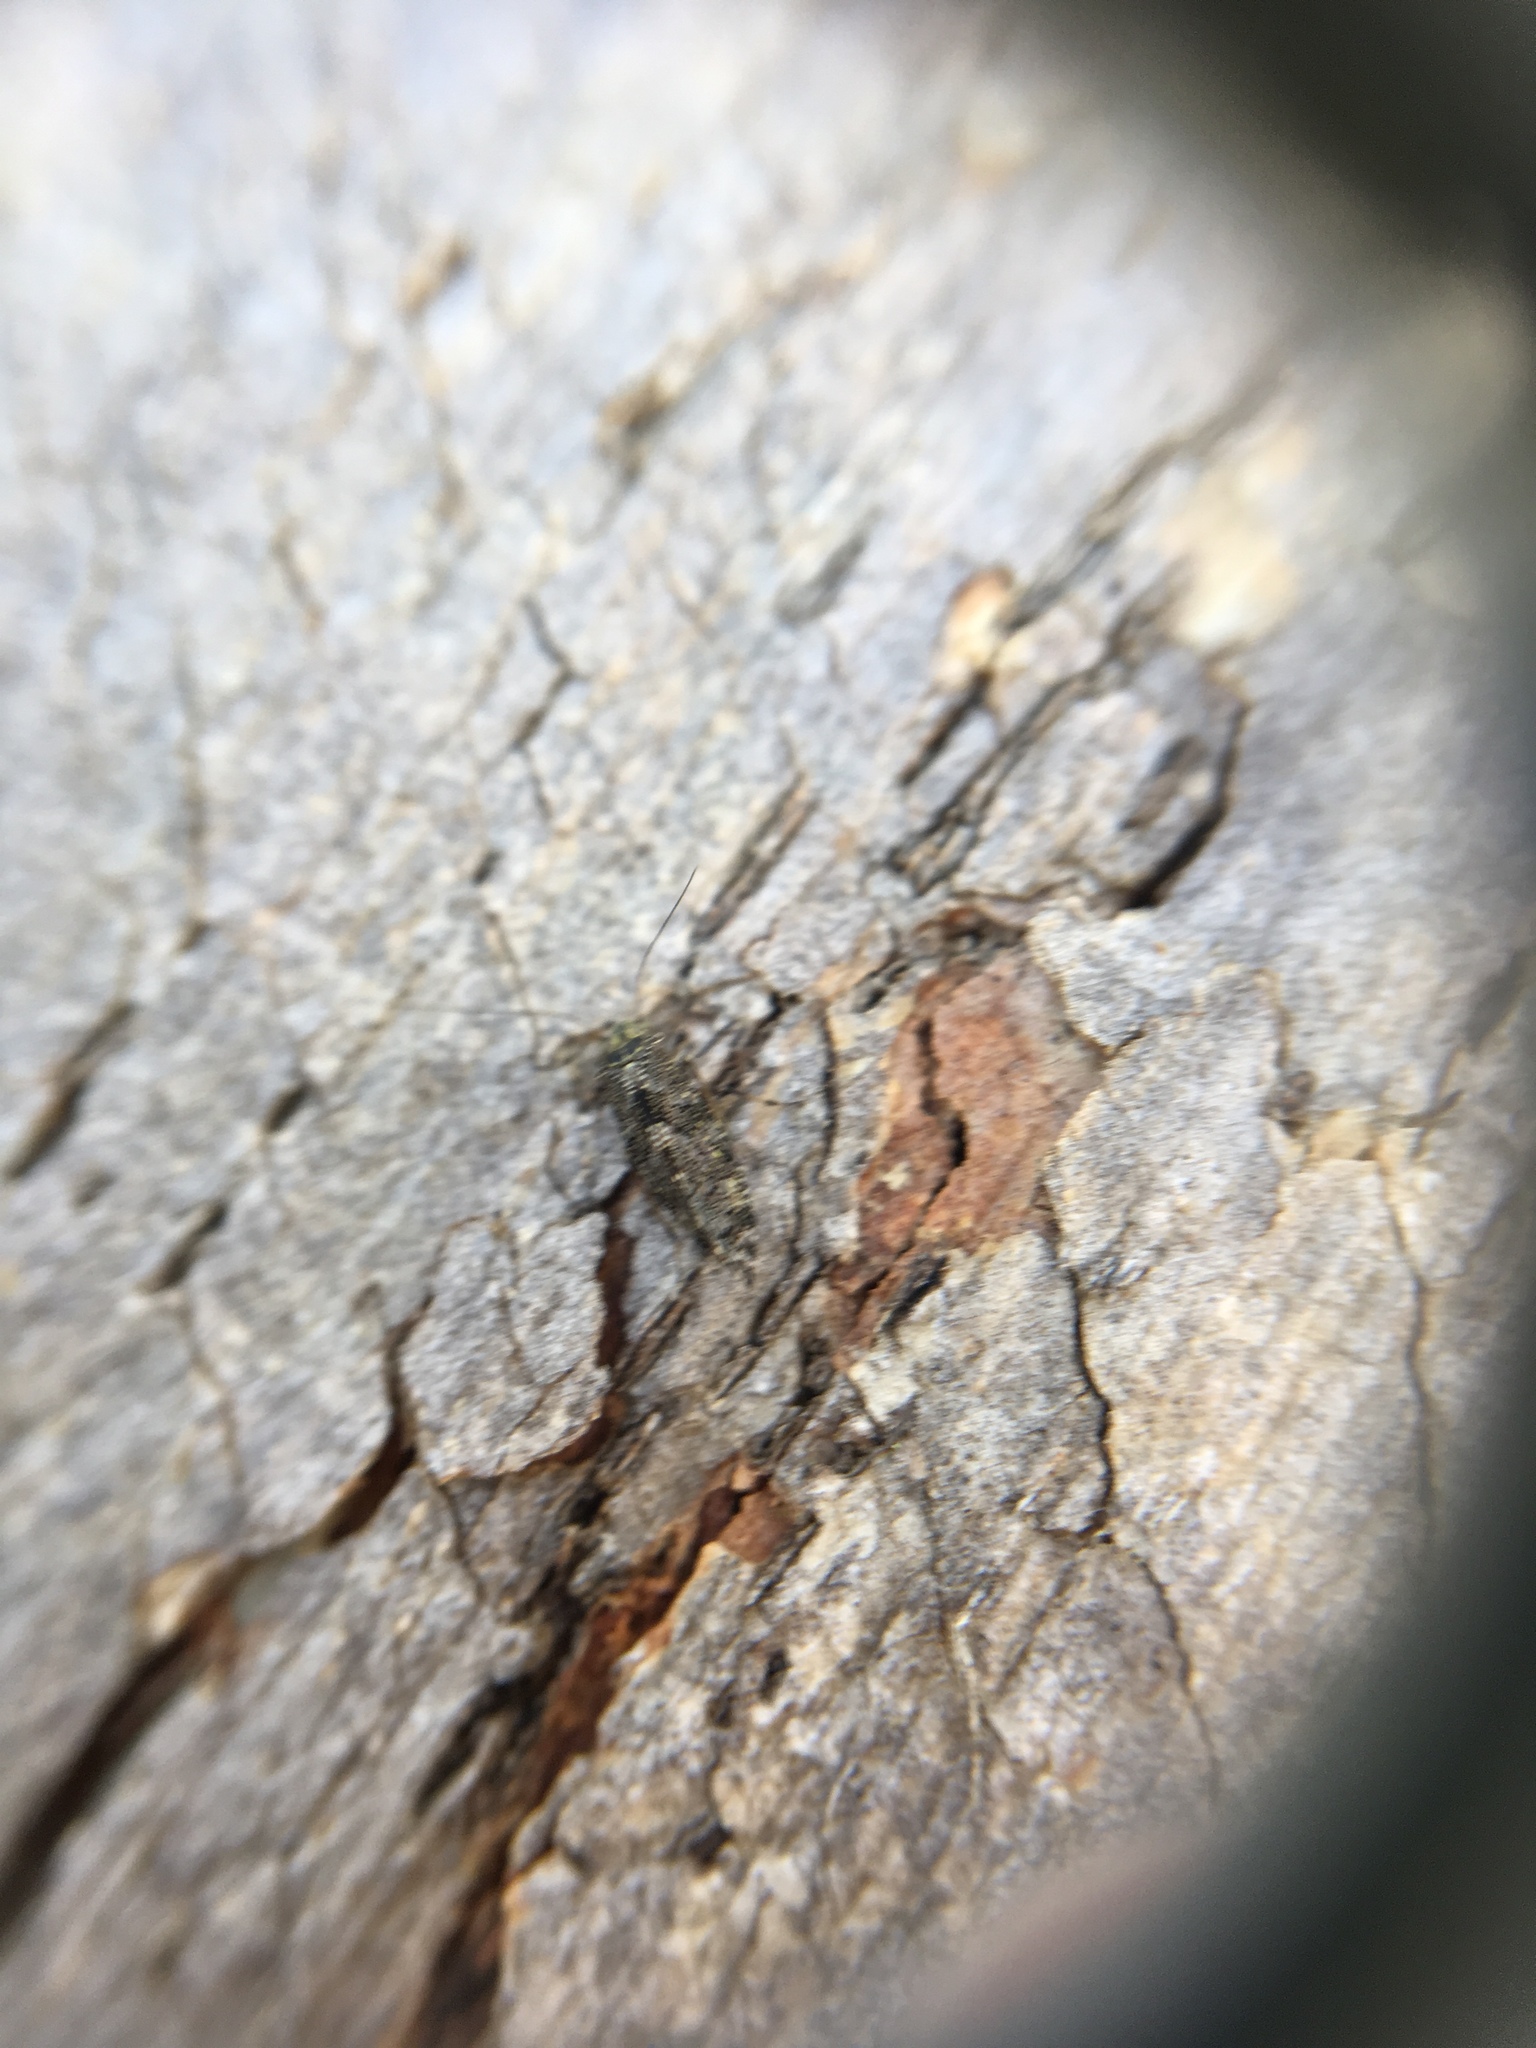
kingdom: Animalia
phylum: Arthropoda
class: Insecta
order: Psocodea
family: Myopsocidae
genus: Nimbopsocus
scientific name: Nimbopsocus australis
